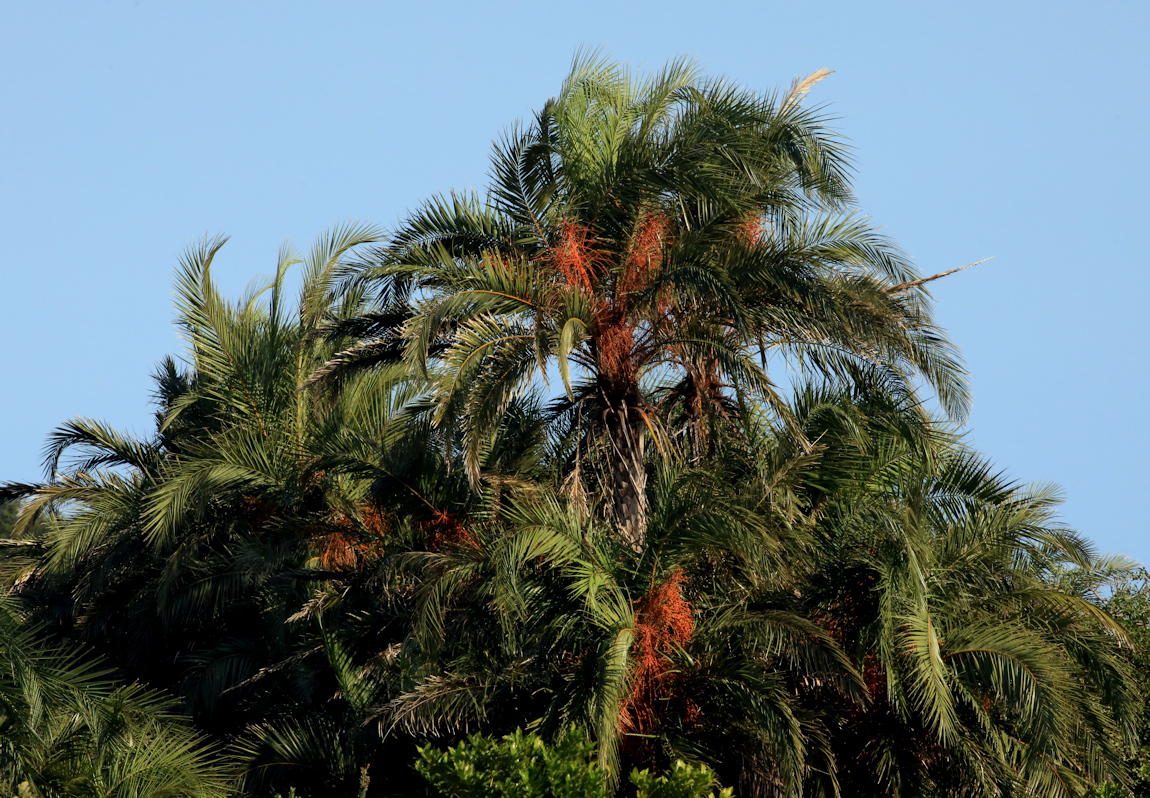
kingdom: Plantae
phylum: Tracheophyta
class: Liliopsida
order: Arecales
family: Arecaceae
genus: Phoenix
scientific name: Phoenix reclinata
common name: Senegal date palm
